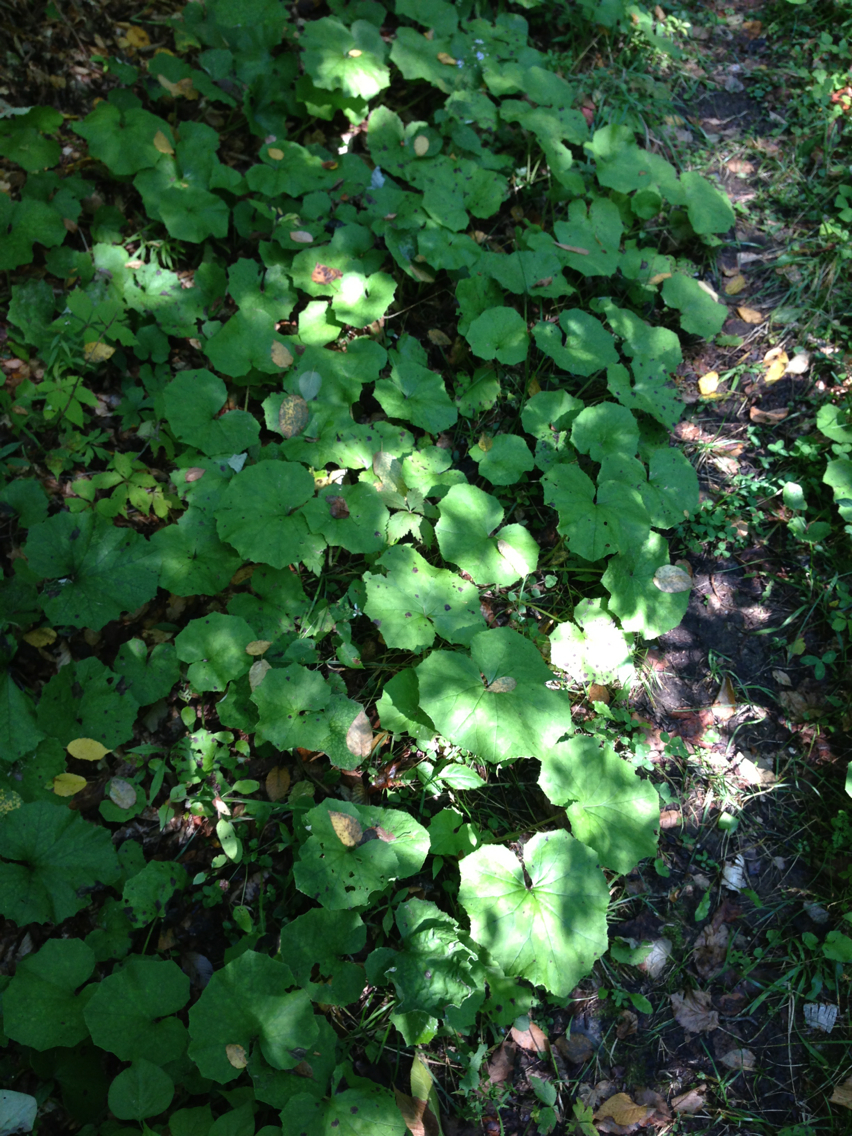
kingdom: Plantae
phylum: Tracheophyta
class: Magnoliopsida
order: Asterales
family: Asteraceae
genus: Tussilago
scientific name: Tussilago farfara
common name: Coltsfoot
